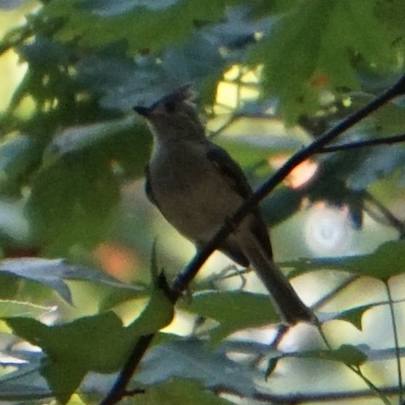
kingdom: Animalia
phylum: Chordata
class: Aves
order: Passeriformes
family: Paridae
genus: Baeolophus
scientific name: Baeolophus bicolor
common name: Tufted titmouse
